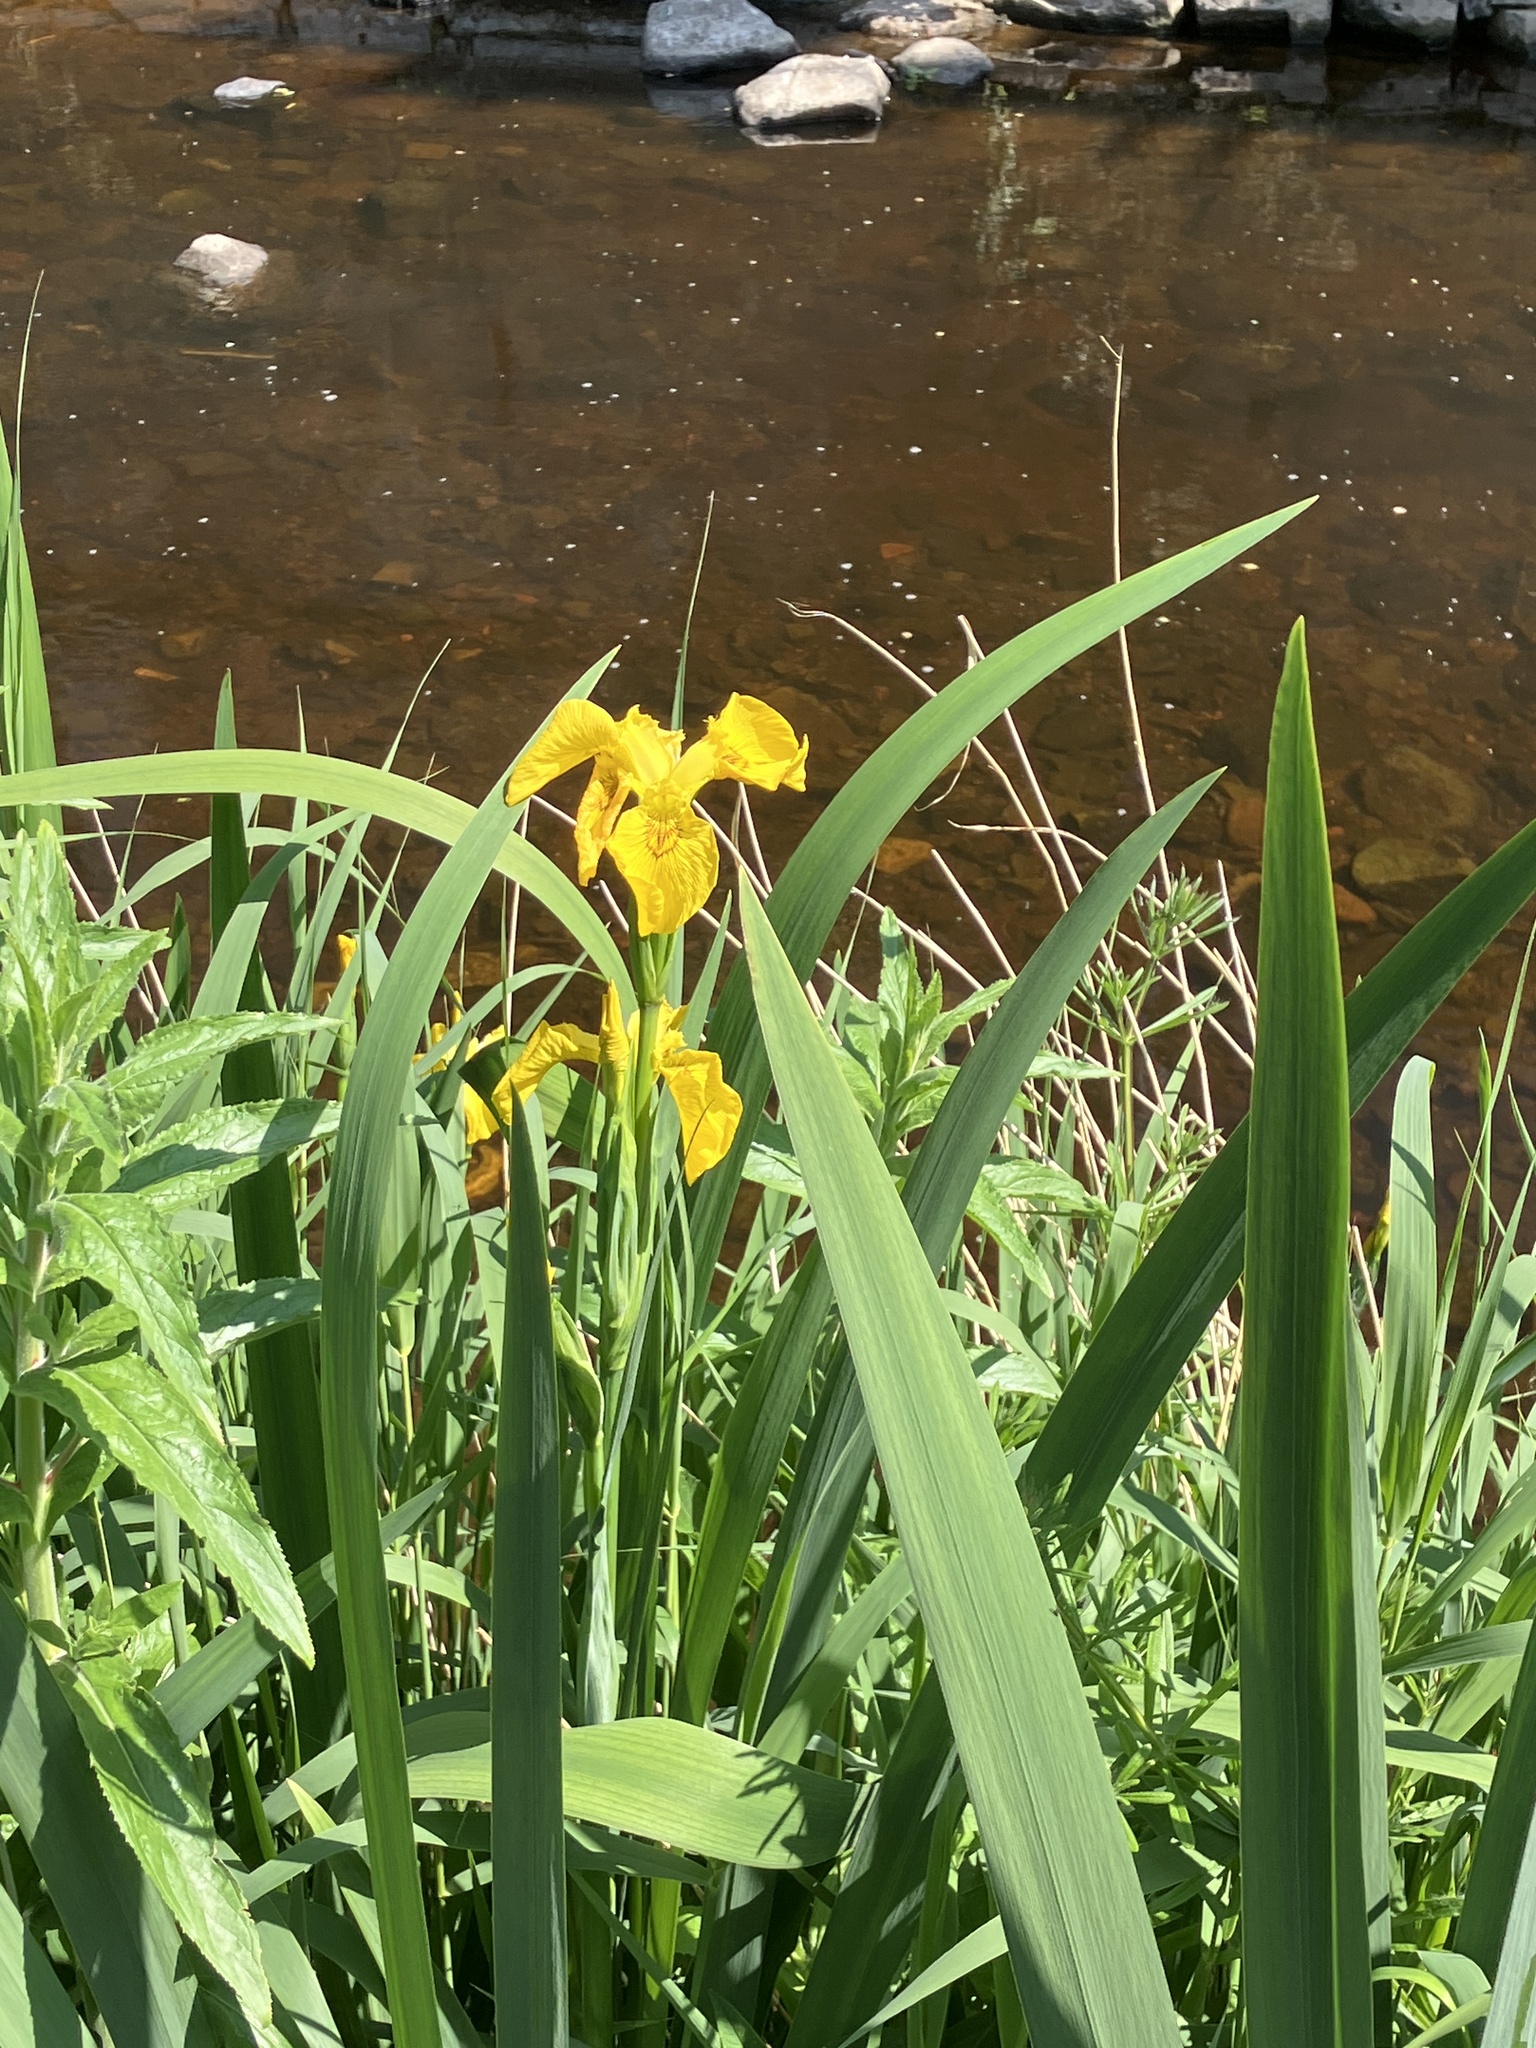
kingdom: Plantae
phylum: Tracheophyta
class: Liliopsida
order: Asparagales
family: Iridaceae
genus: Iris
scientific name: Iris pseudacorus
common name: Yellow flag
